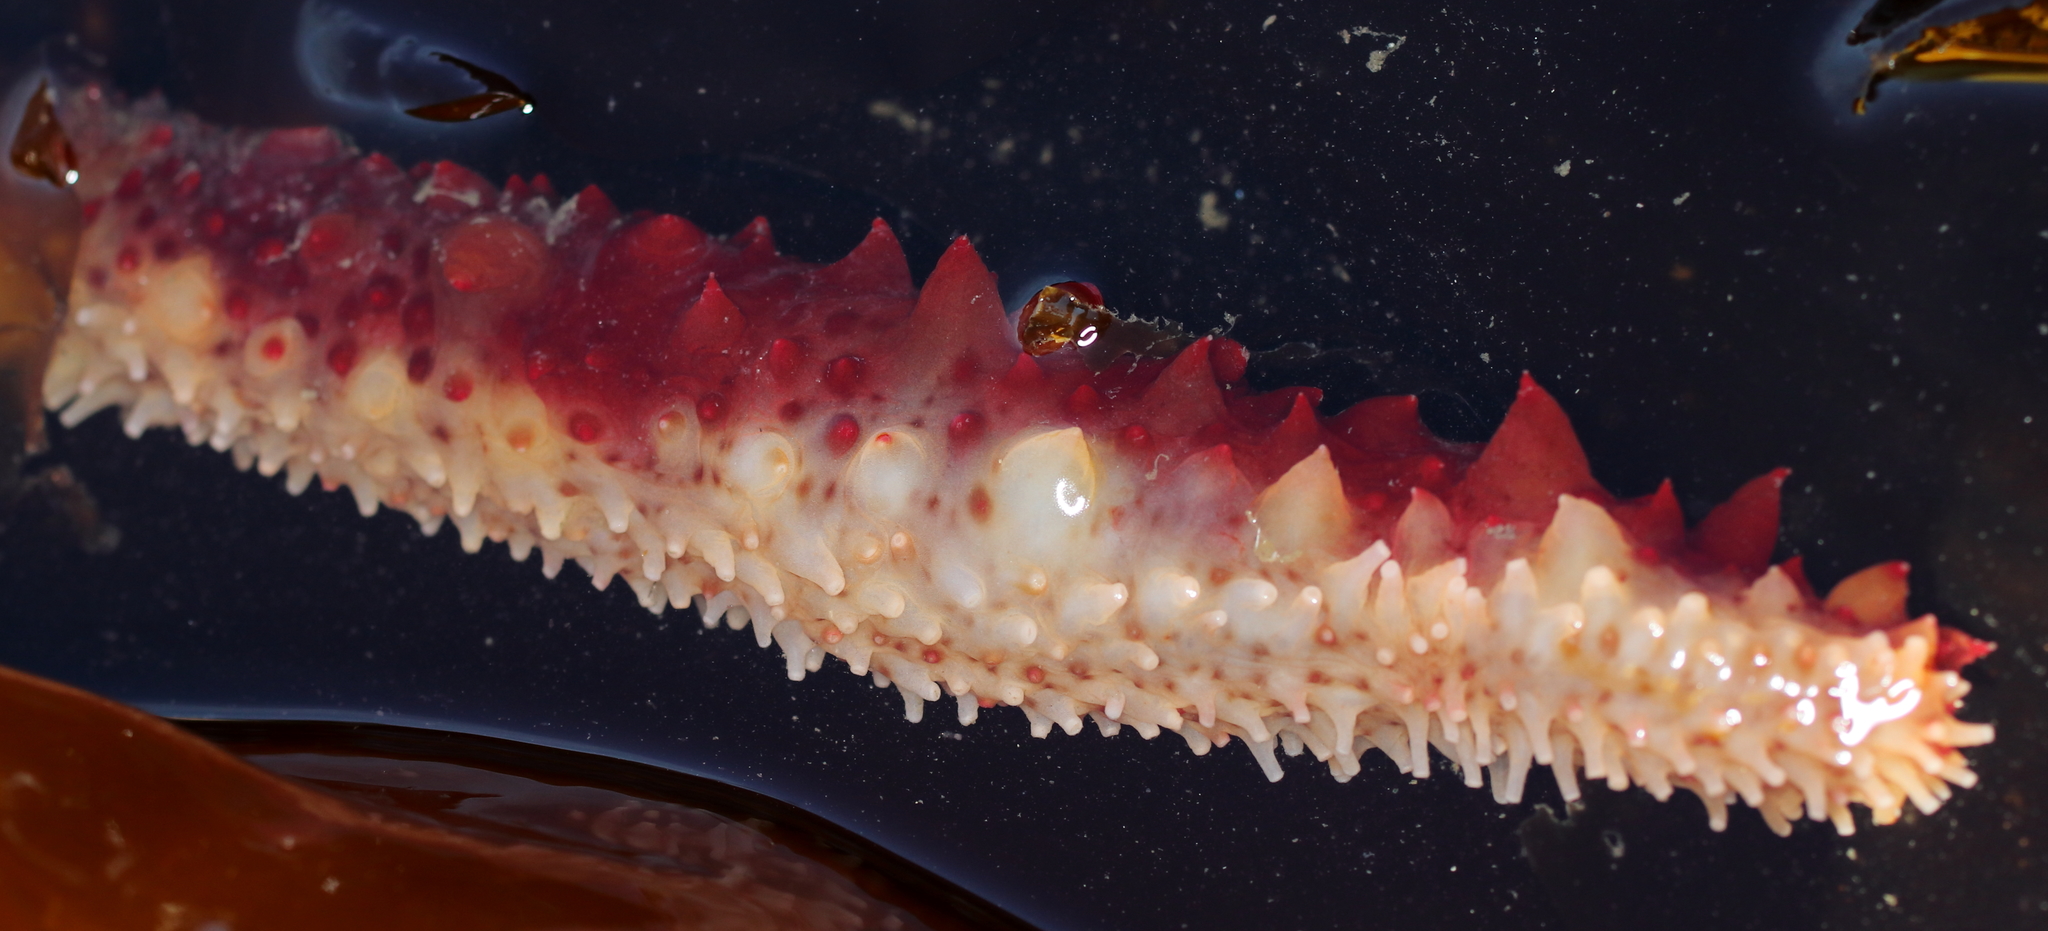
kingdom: Animalia
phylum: Echinodermata
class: Holothuroidea
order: Synallactida
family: Stichopodidae
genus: Apostichopus
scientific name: Apostichopus californicus
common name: California sea cucumber
